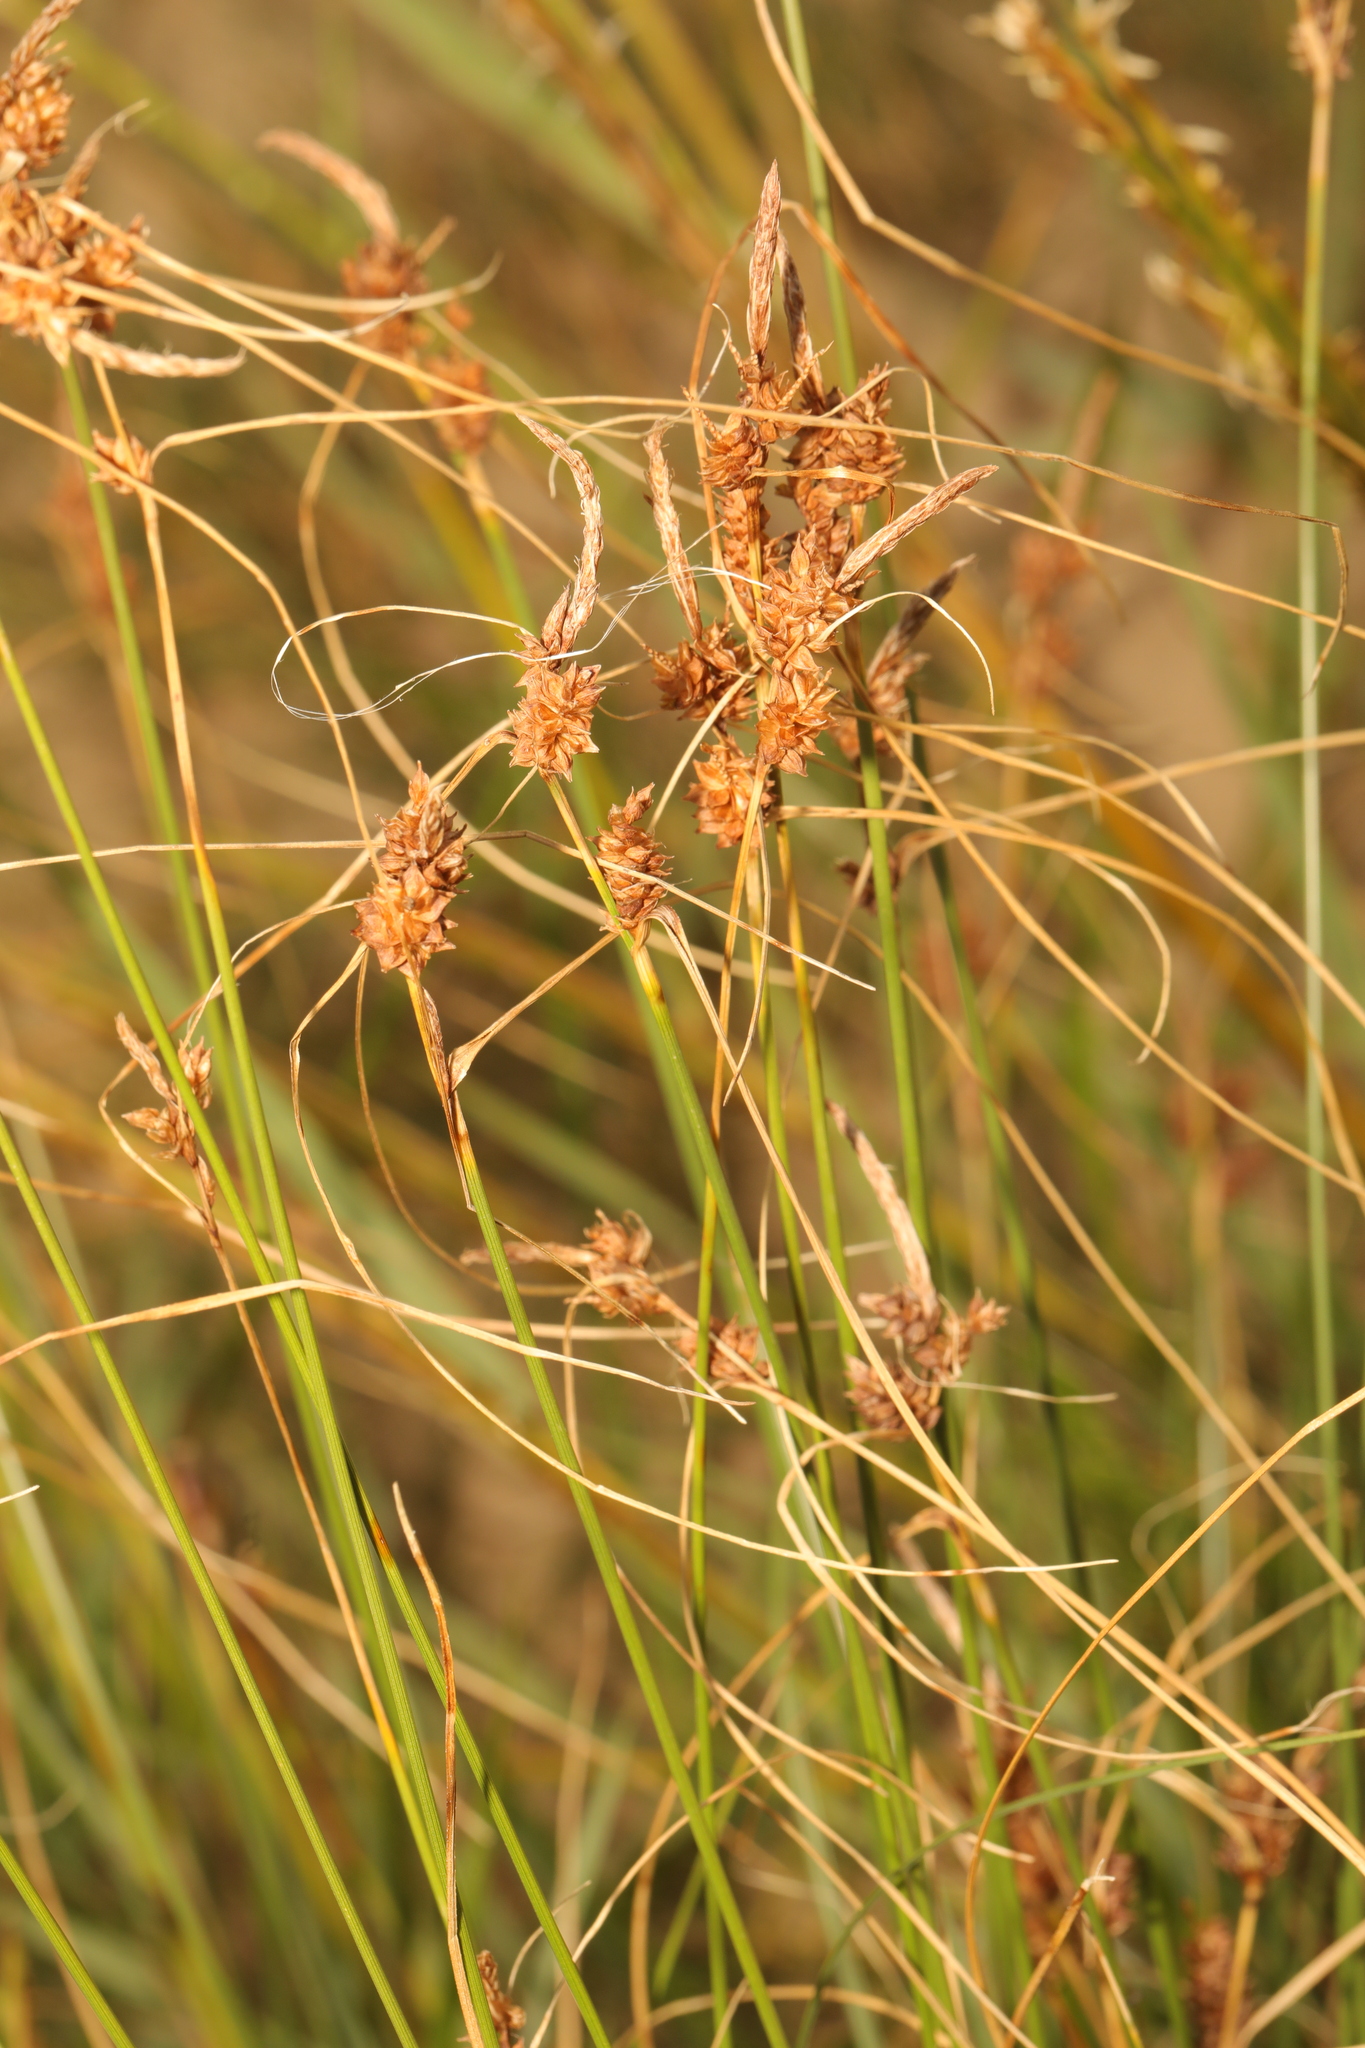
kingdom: Plantae
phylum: Tracheophyta
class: Liliopsida
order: Poales
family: Cyperaceae
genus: Carex
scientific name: Carex extensa
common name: Long-bracted sedge
